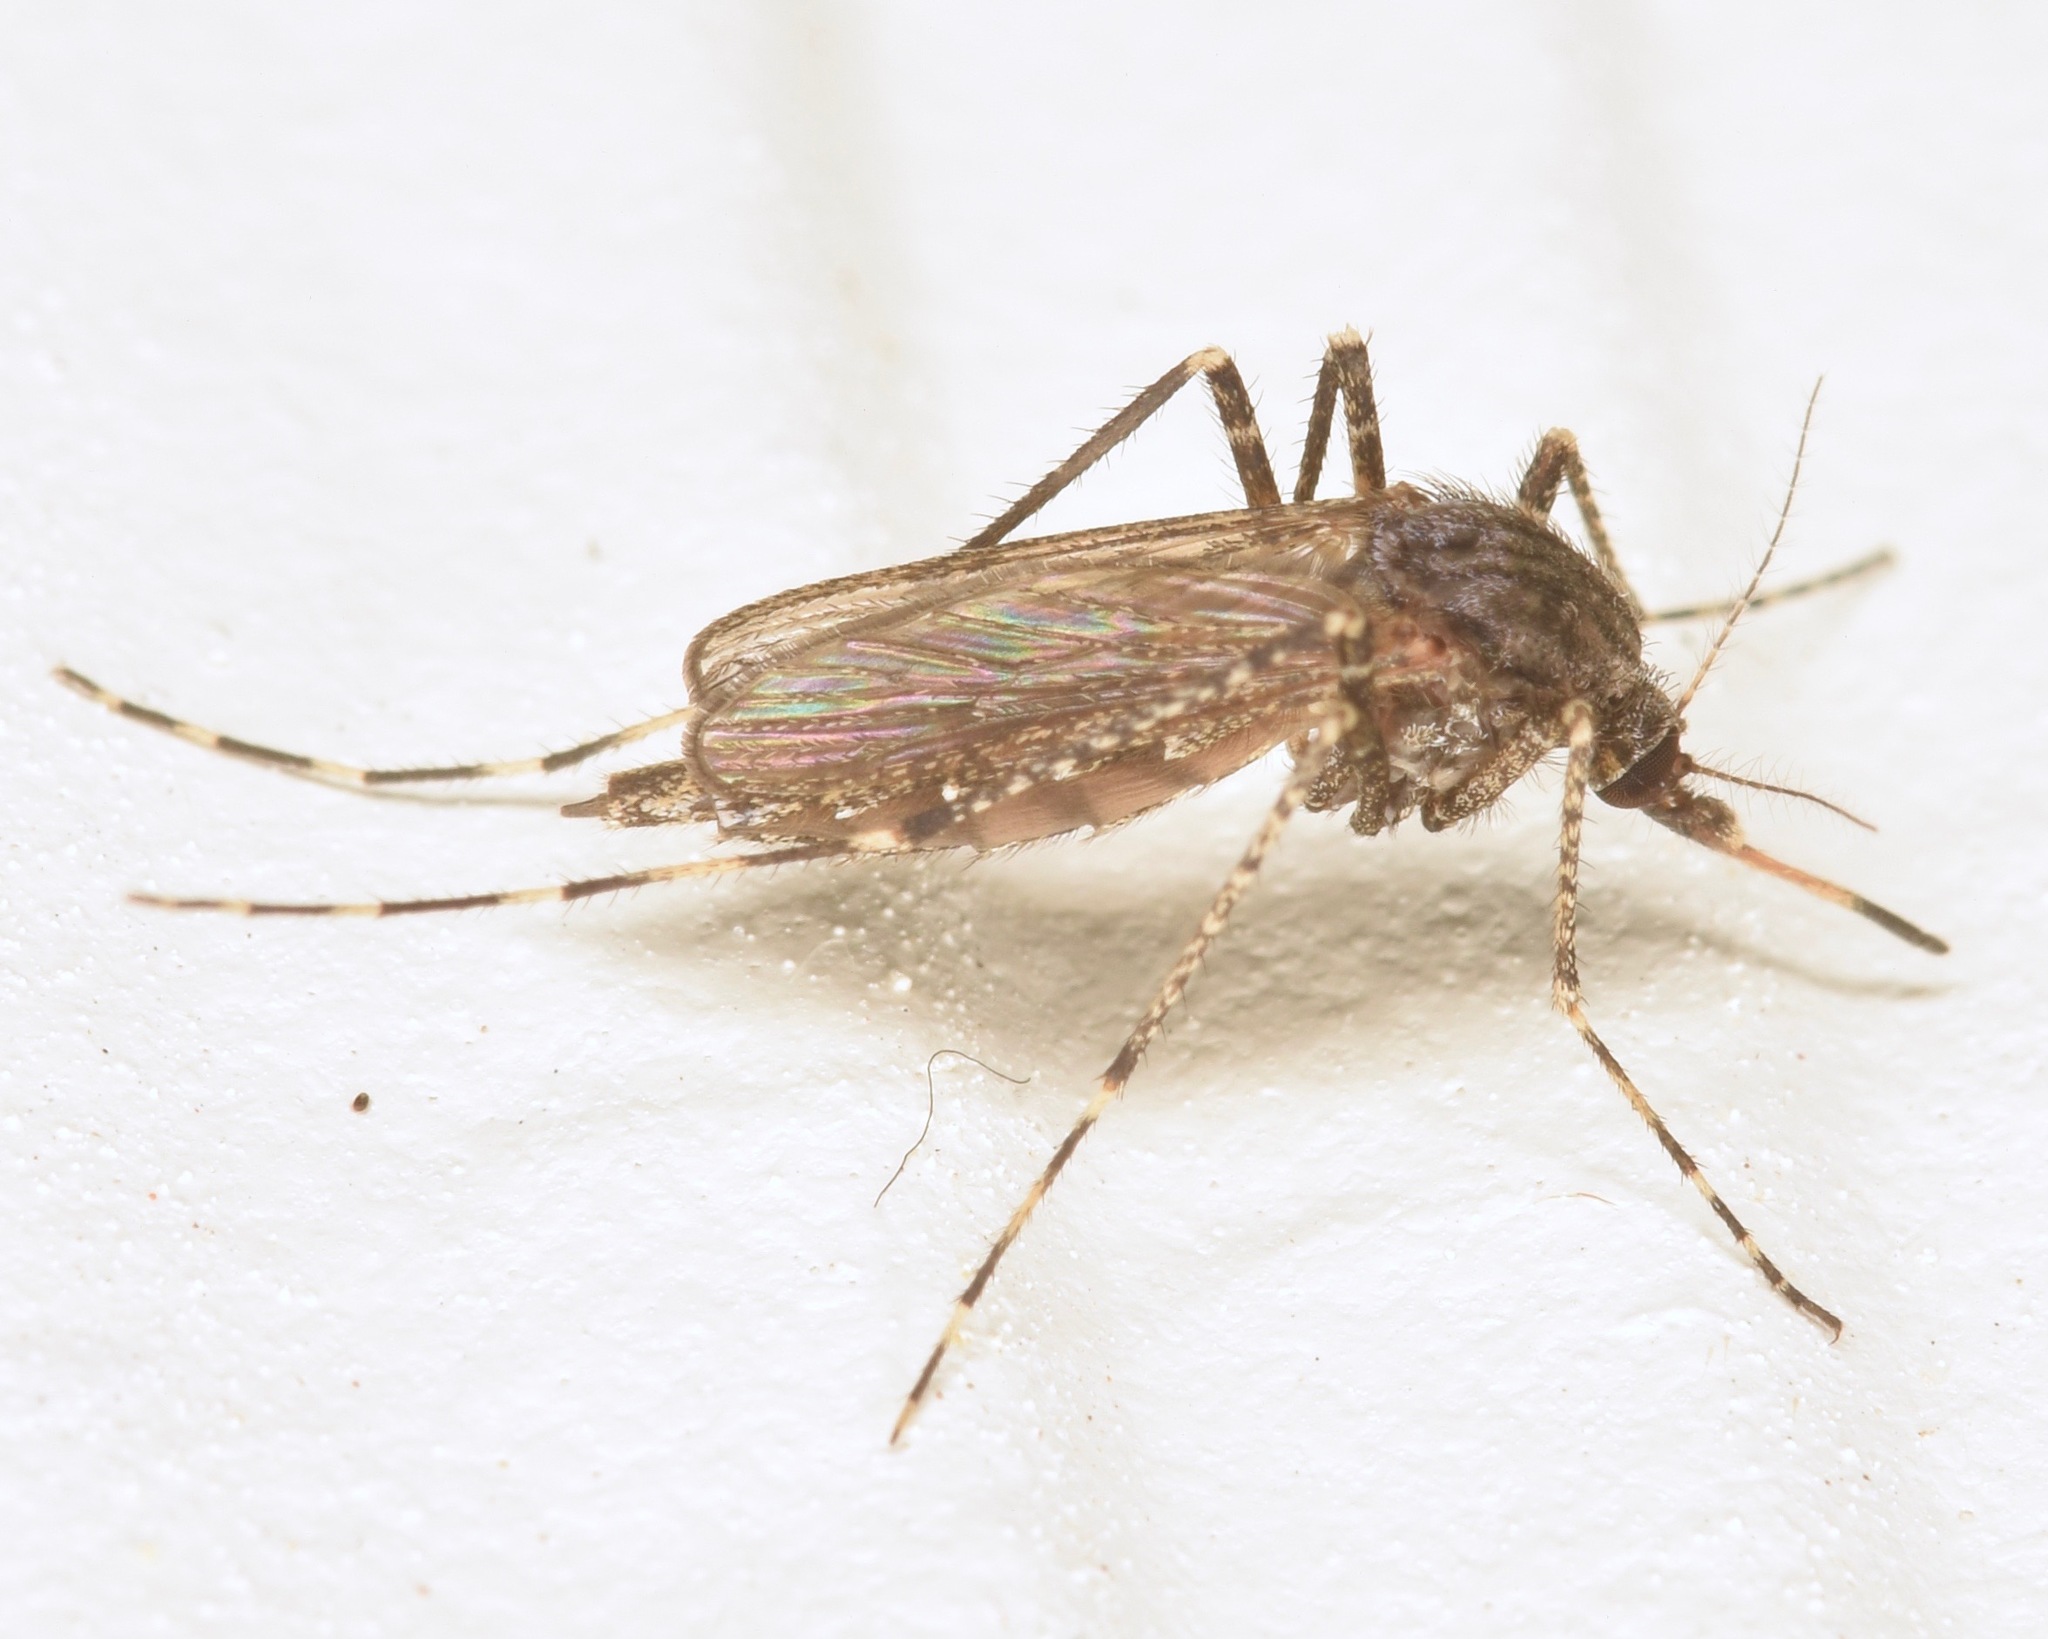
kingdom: Animalia
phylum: Arthropoda
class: Insecta
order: Diptera
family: Culicidae
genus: Psorophora
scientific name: Psorophora columbiae
